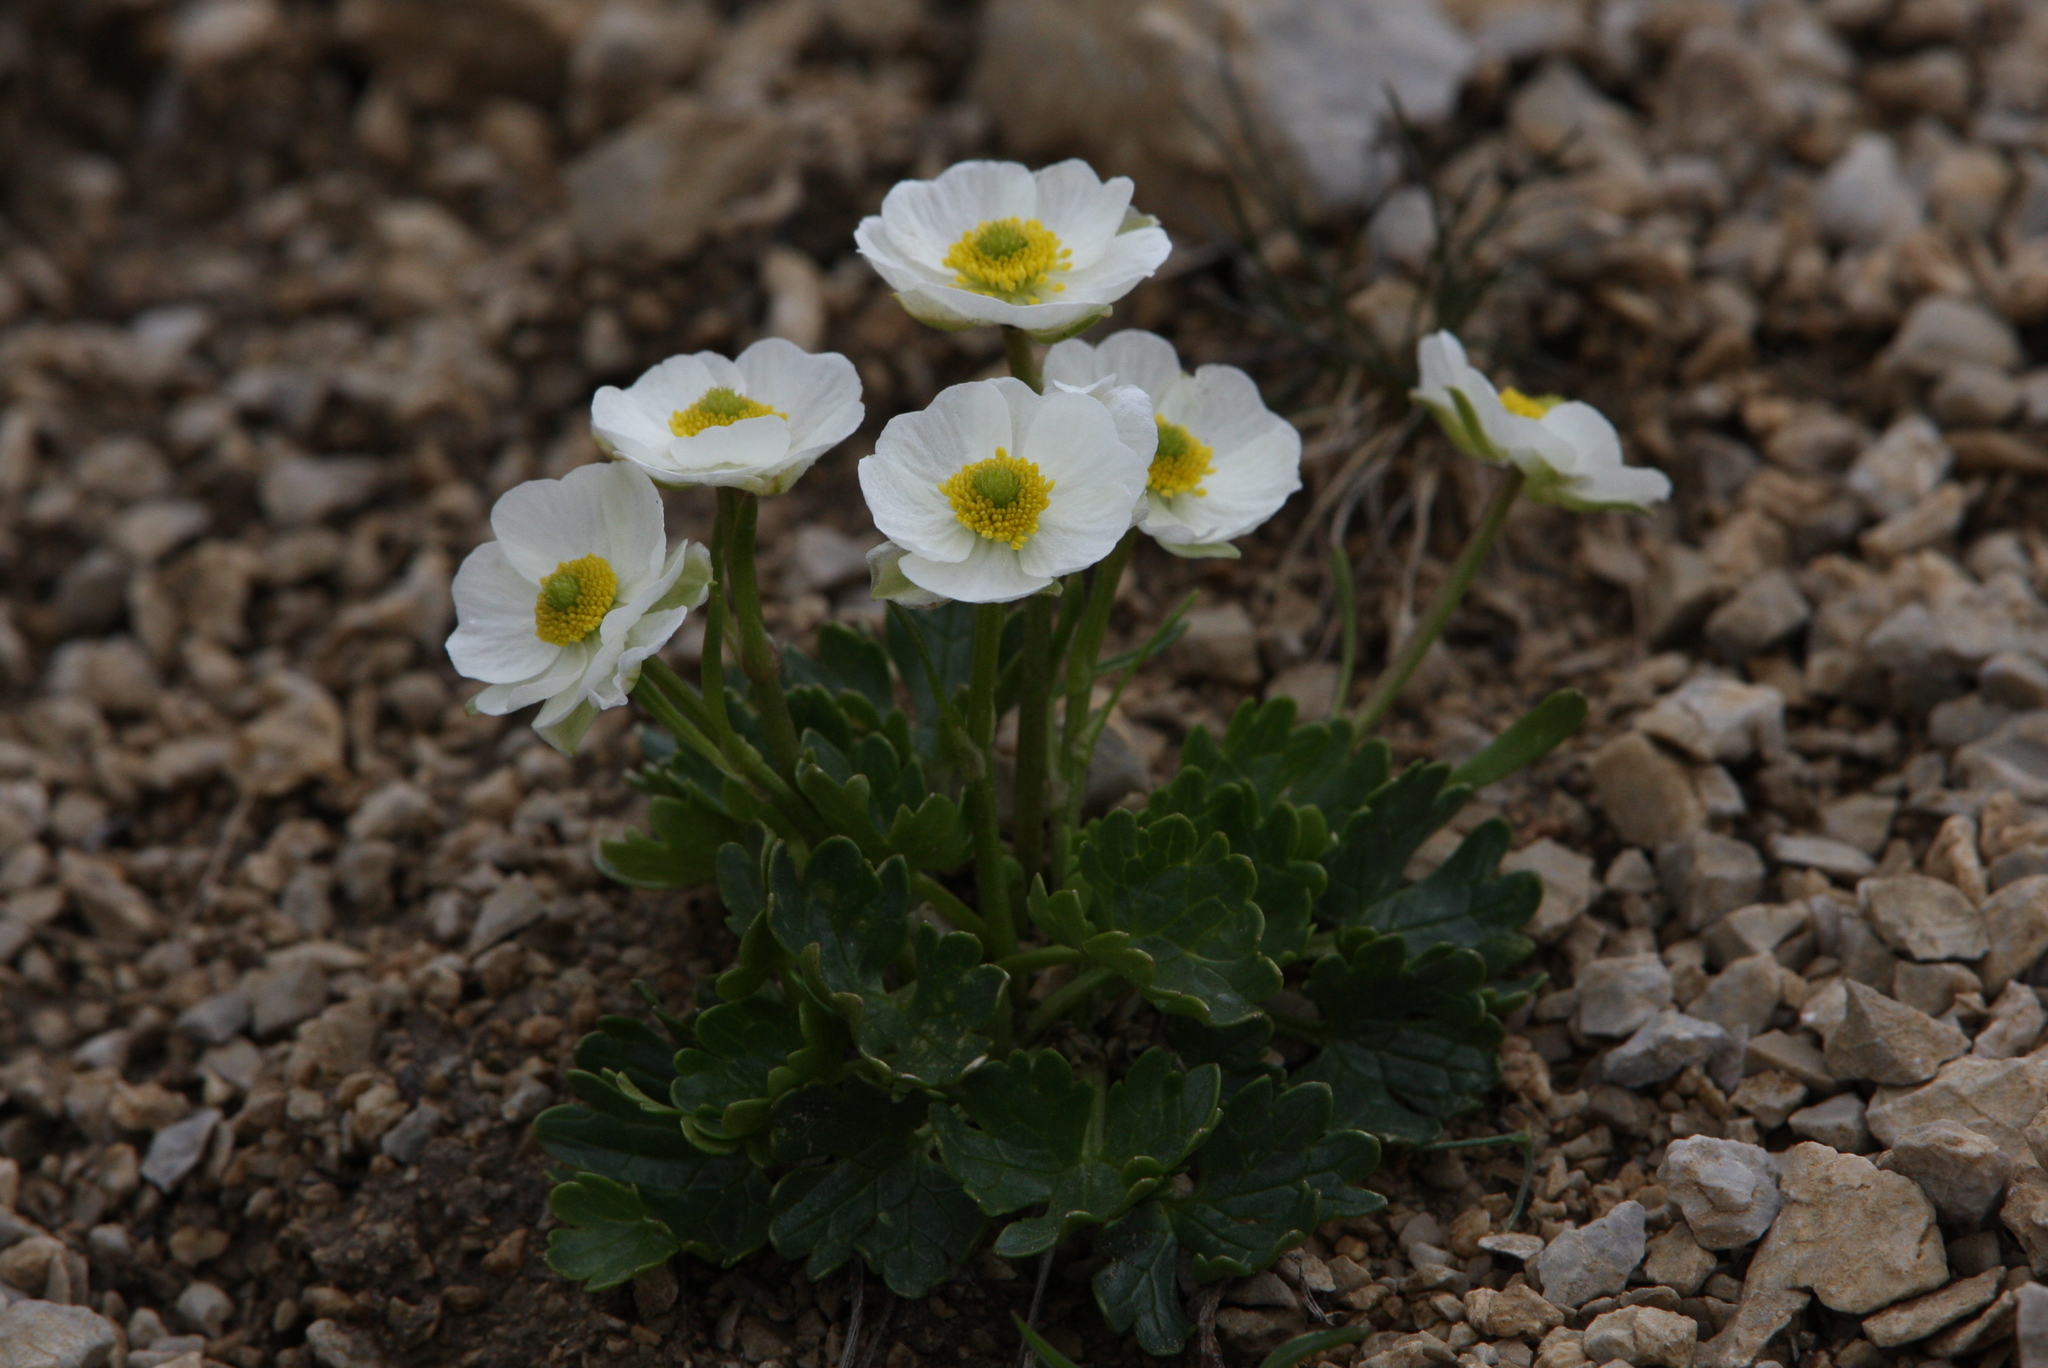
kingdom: Plantae
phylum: Tracheophyta
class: Magnoliopsida
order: Ranunculales
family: Ranunculaceae
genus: Ranunculus
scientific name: Ranunculus alpestris
